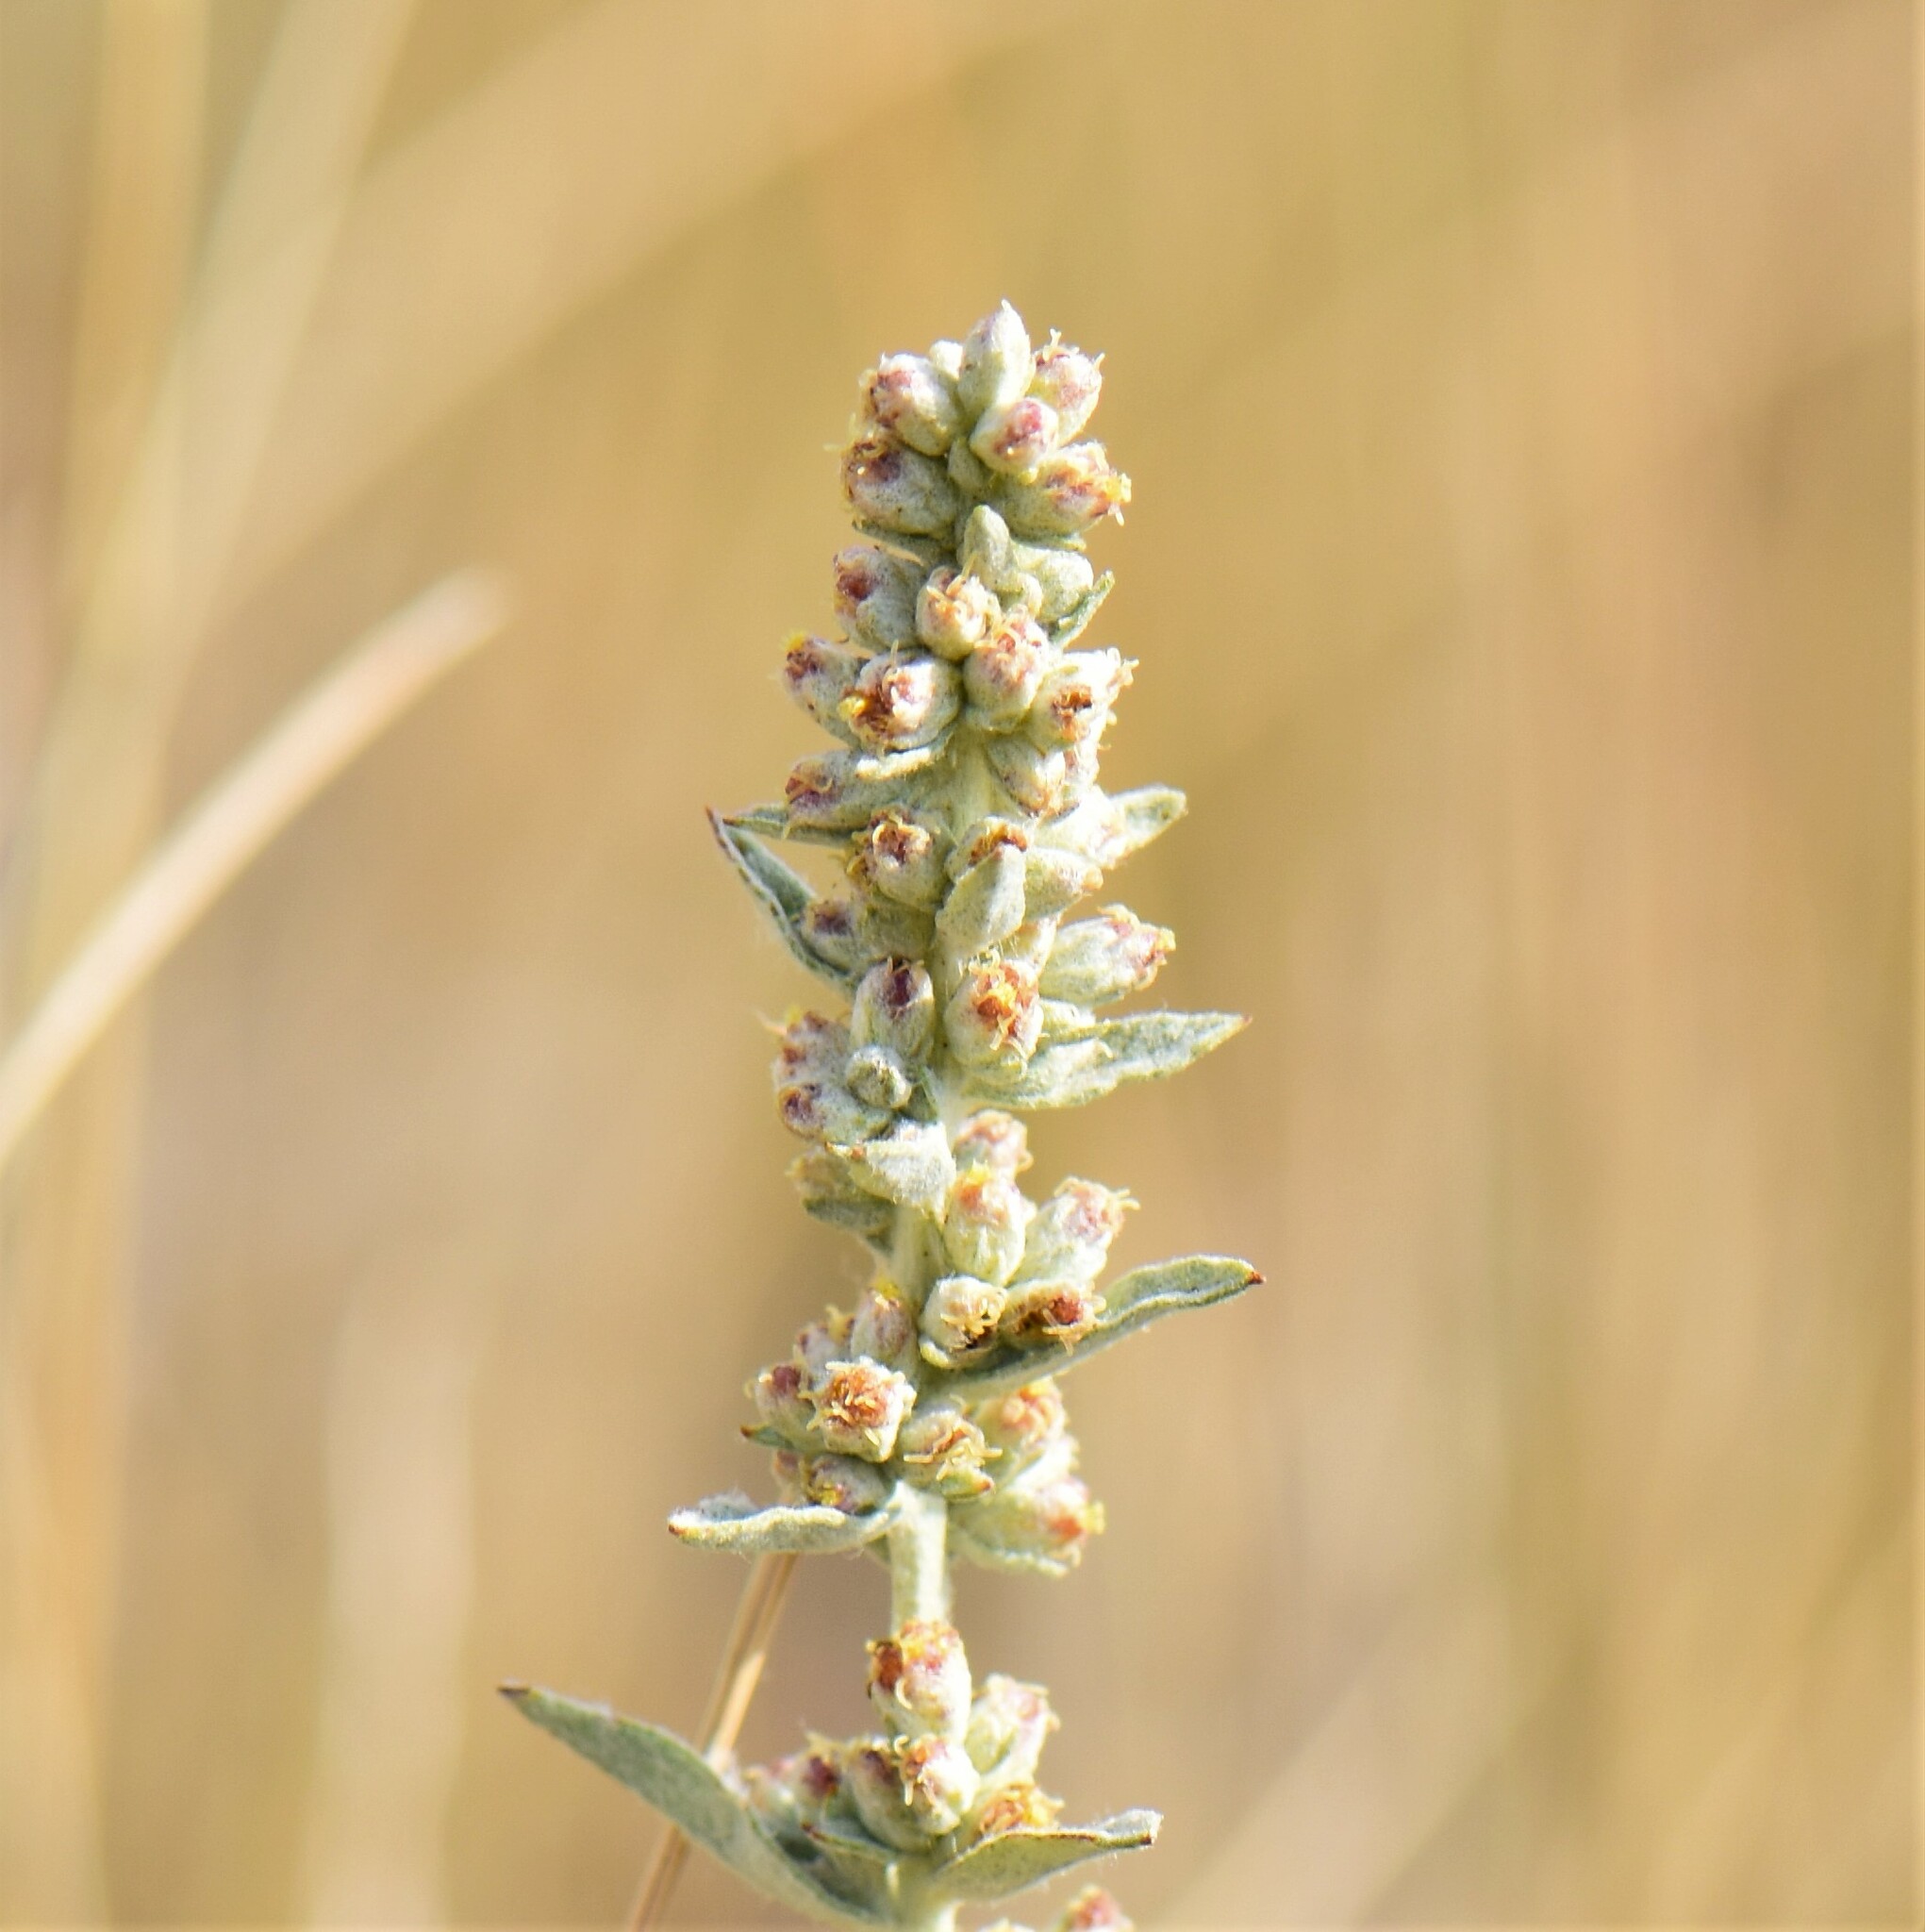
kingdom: Plantae
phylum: Tracheophyta
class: Magnoliopsida
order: Asterales
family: Asteraceae
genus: Artemisia
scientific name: Artemisia ludoviciana
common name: Western mugwort
